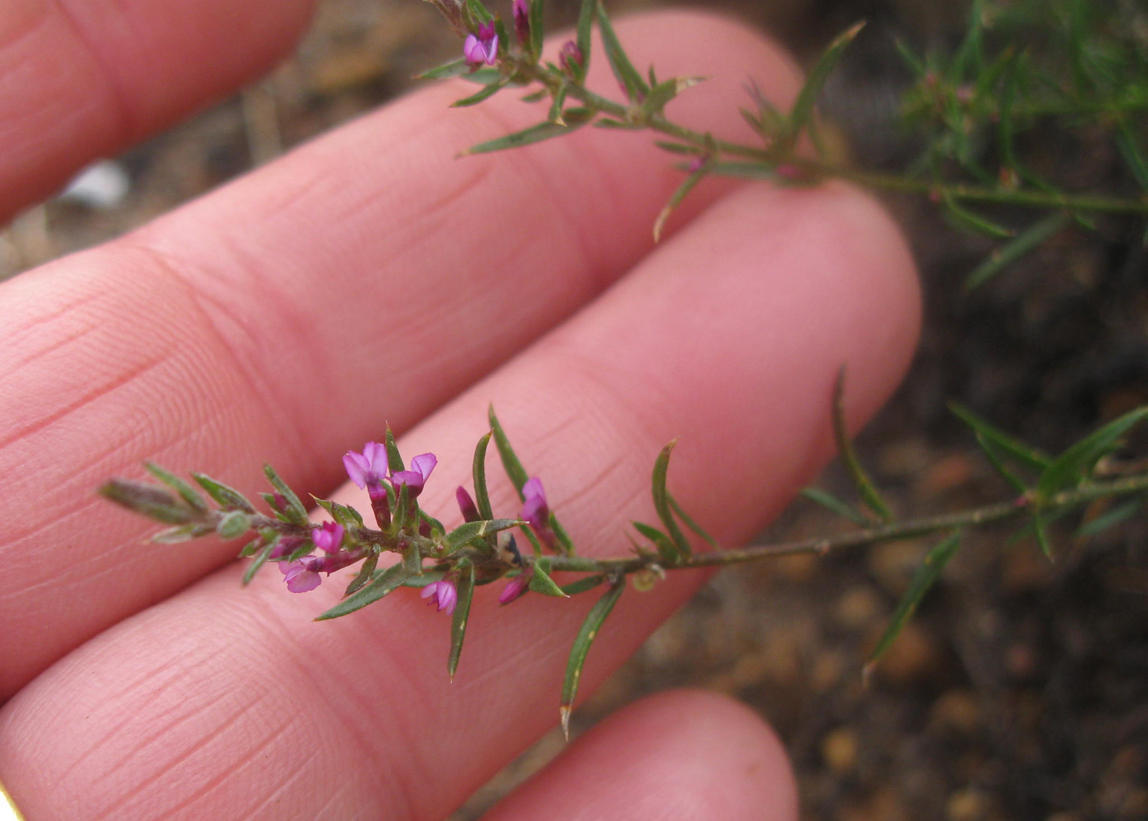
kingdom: Plantae
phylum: Tracheophyta
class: Magnoliopsida
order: Fabales
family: Polygalaceae
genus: Muraltia
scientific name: Muraltia stipulacea
